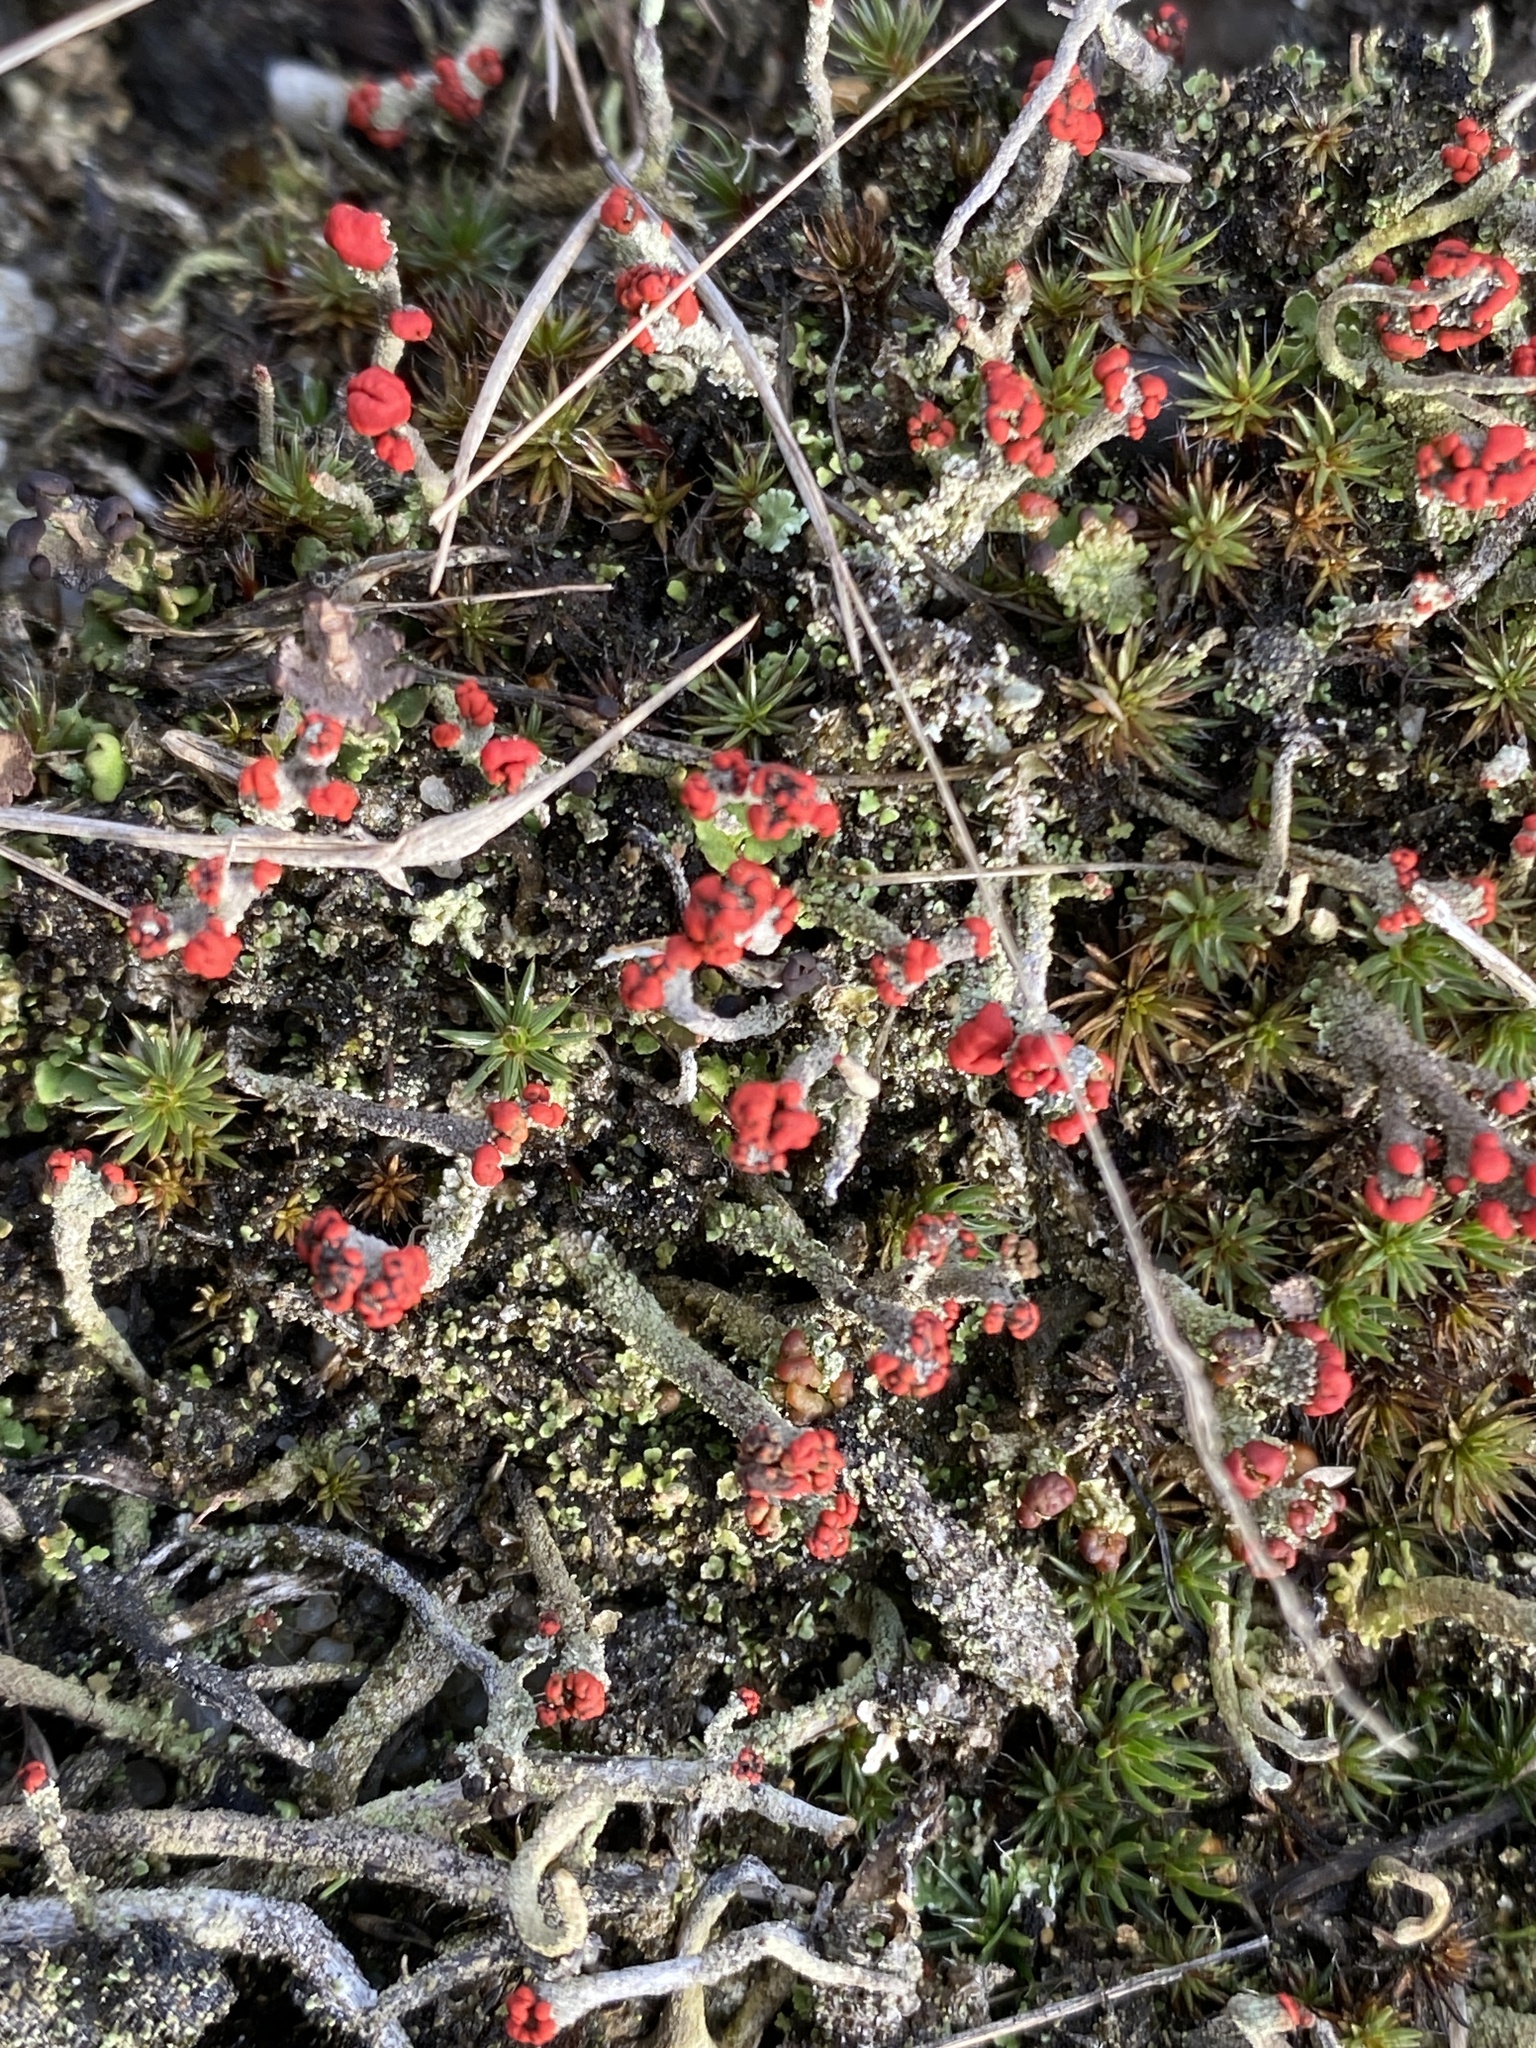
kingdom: Fungi
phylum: Ascomycota
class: Lecanoromycetes
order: Lecanorales
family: Cladoniaceae
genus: Cladonia
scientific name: Cladonia floerkeana
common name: Gritty british soldiers lichen
